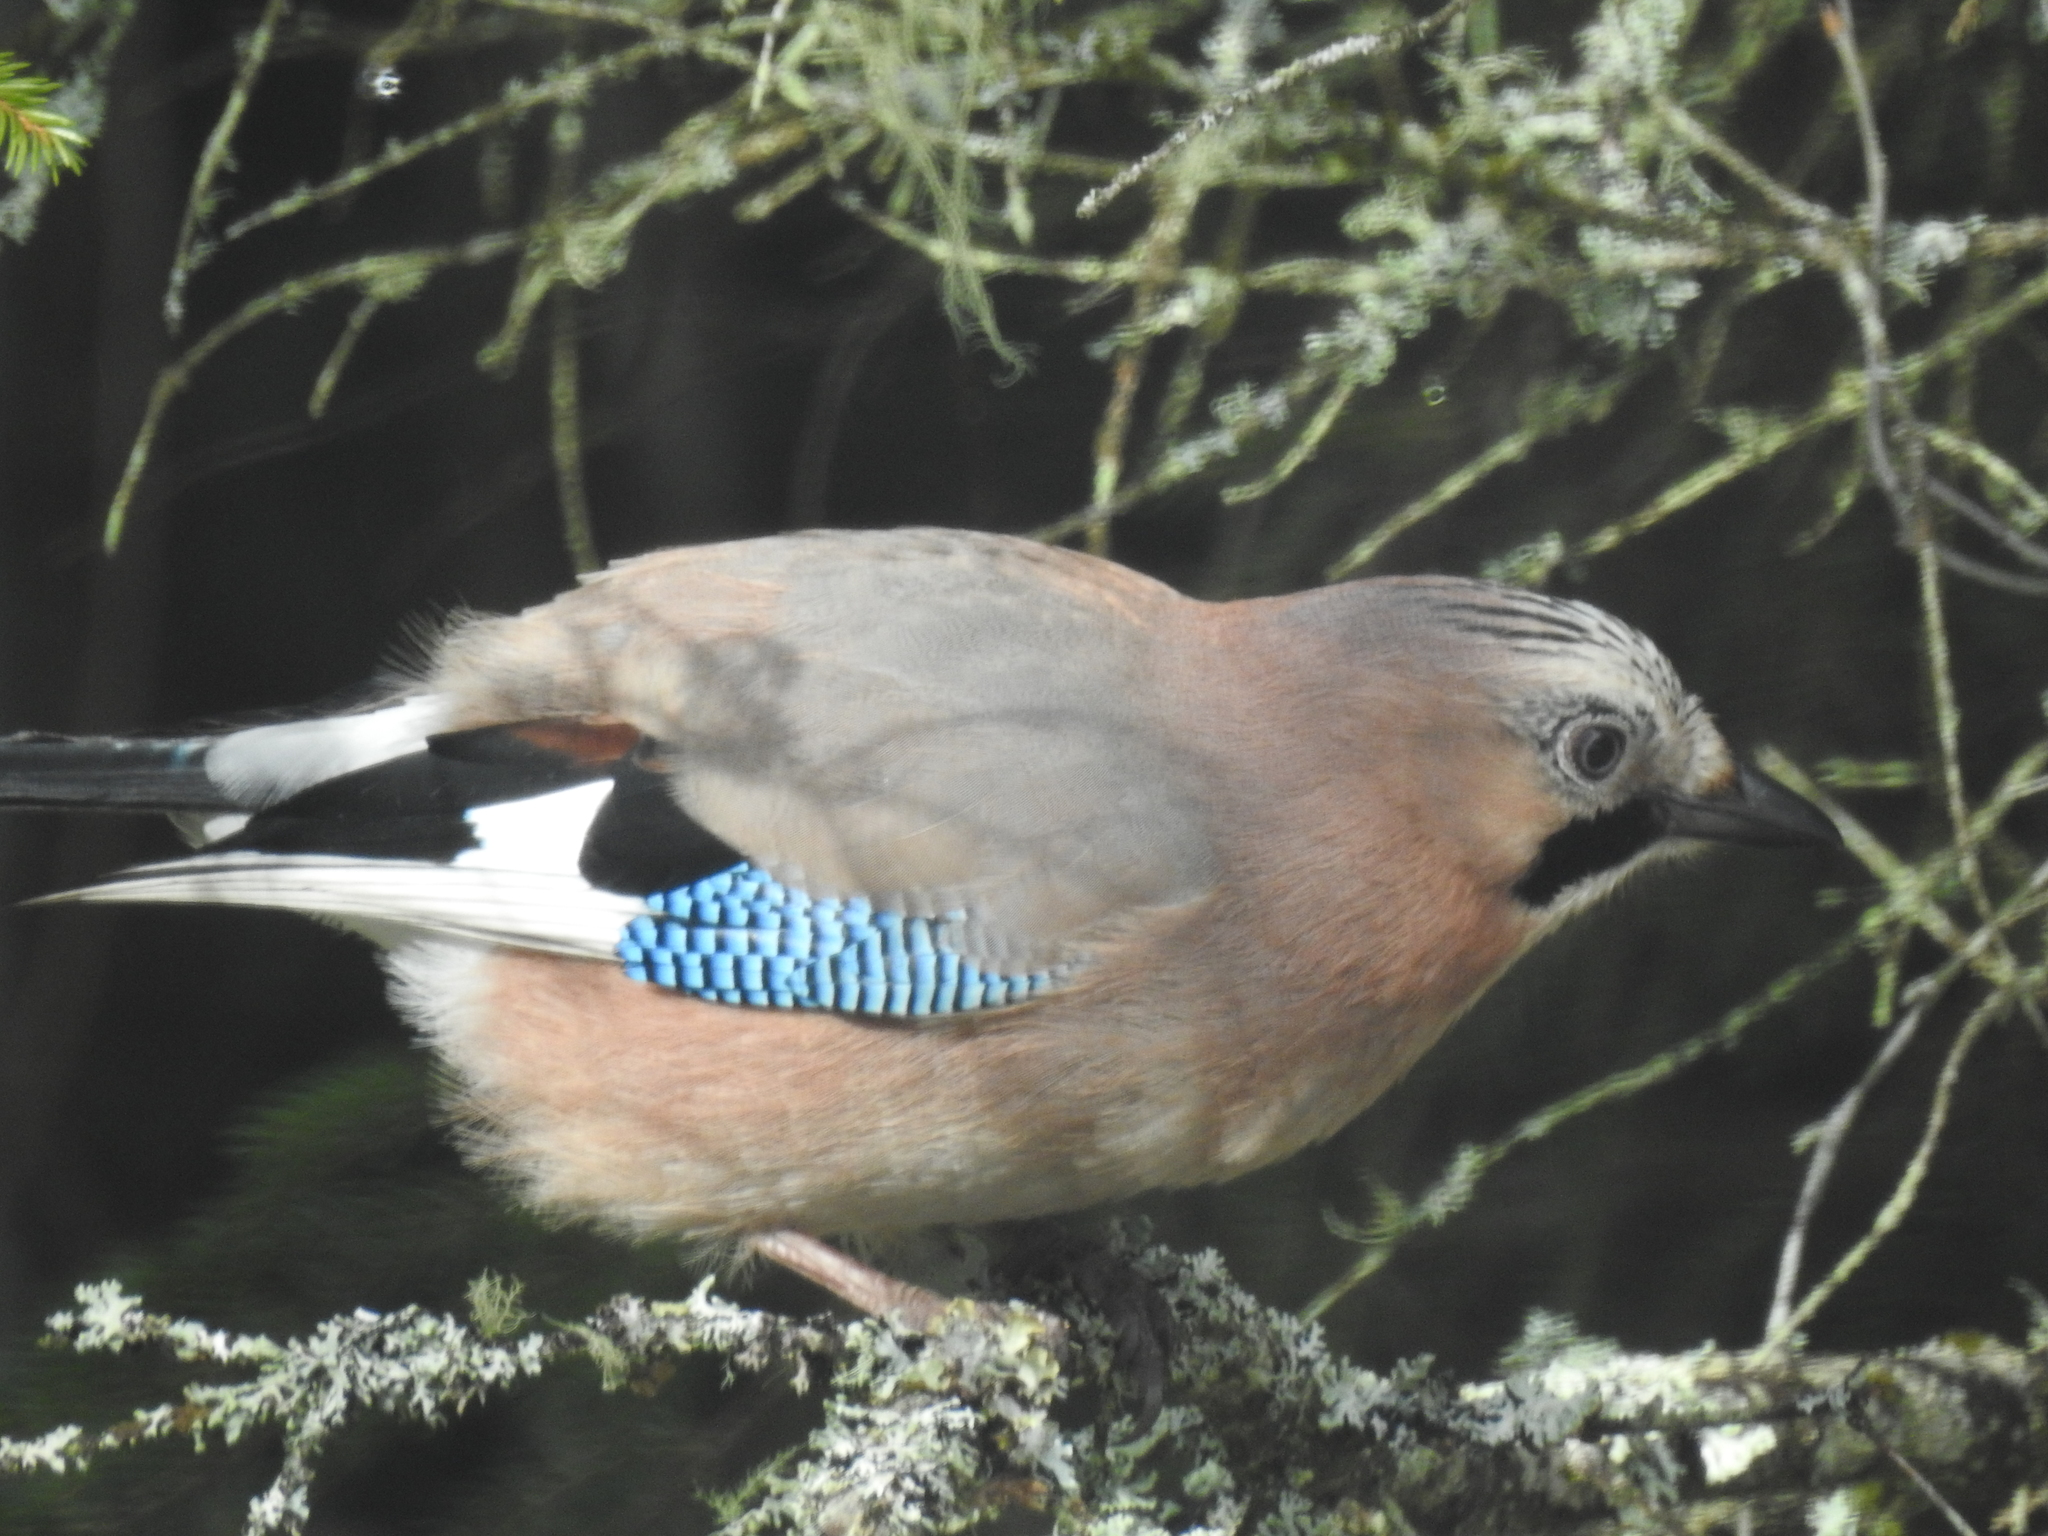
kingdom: Animalia
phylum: Chordata
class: Aves
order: Passeriformes
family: Corvidae
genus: Garrulus
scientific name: Garrulus glandarius
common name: Eurasian jay
